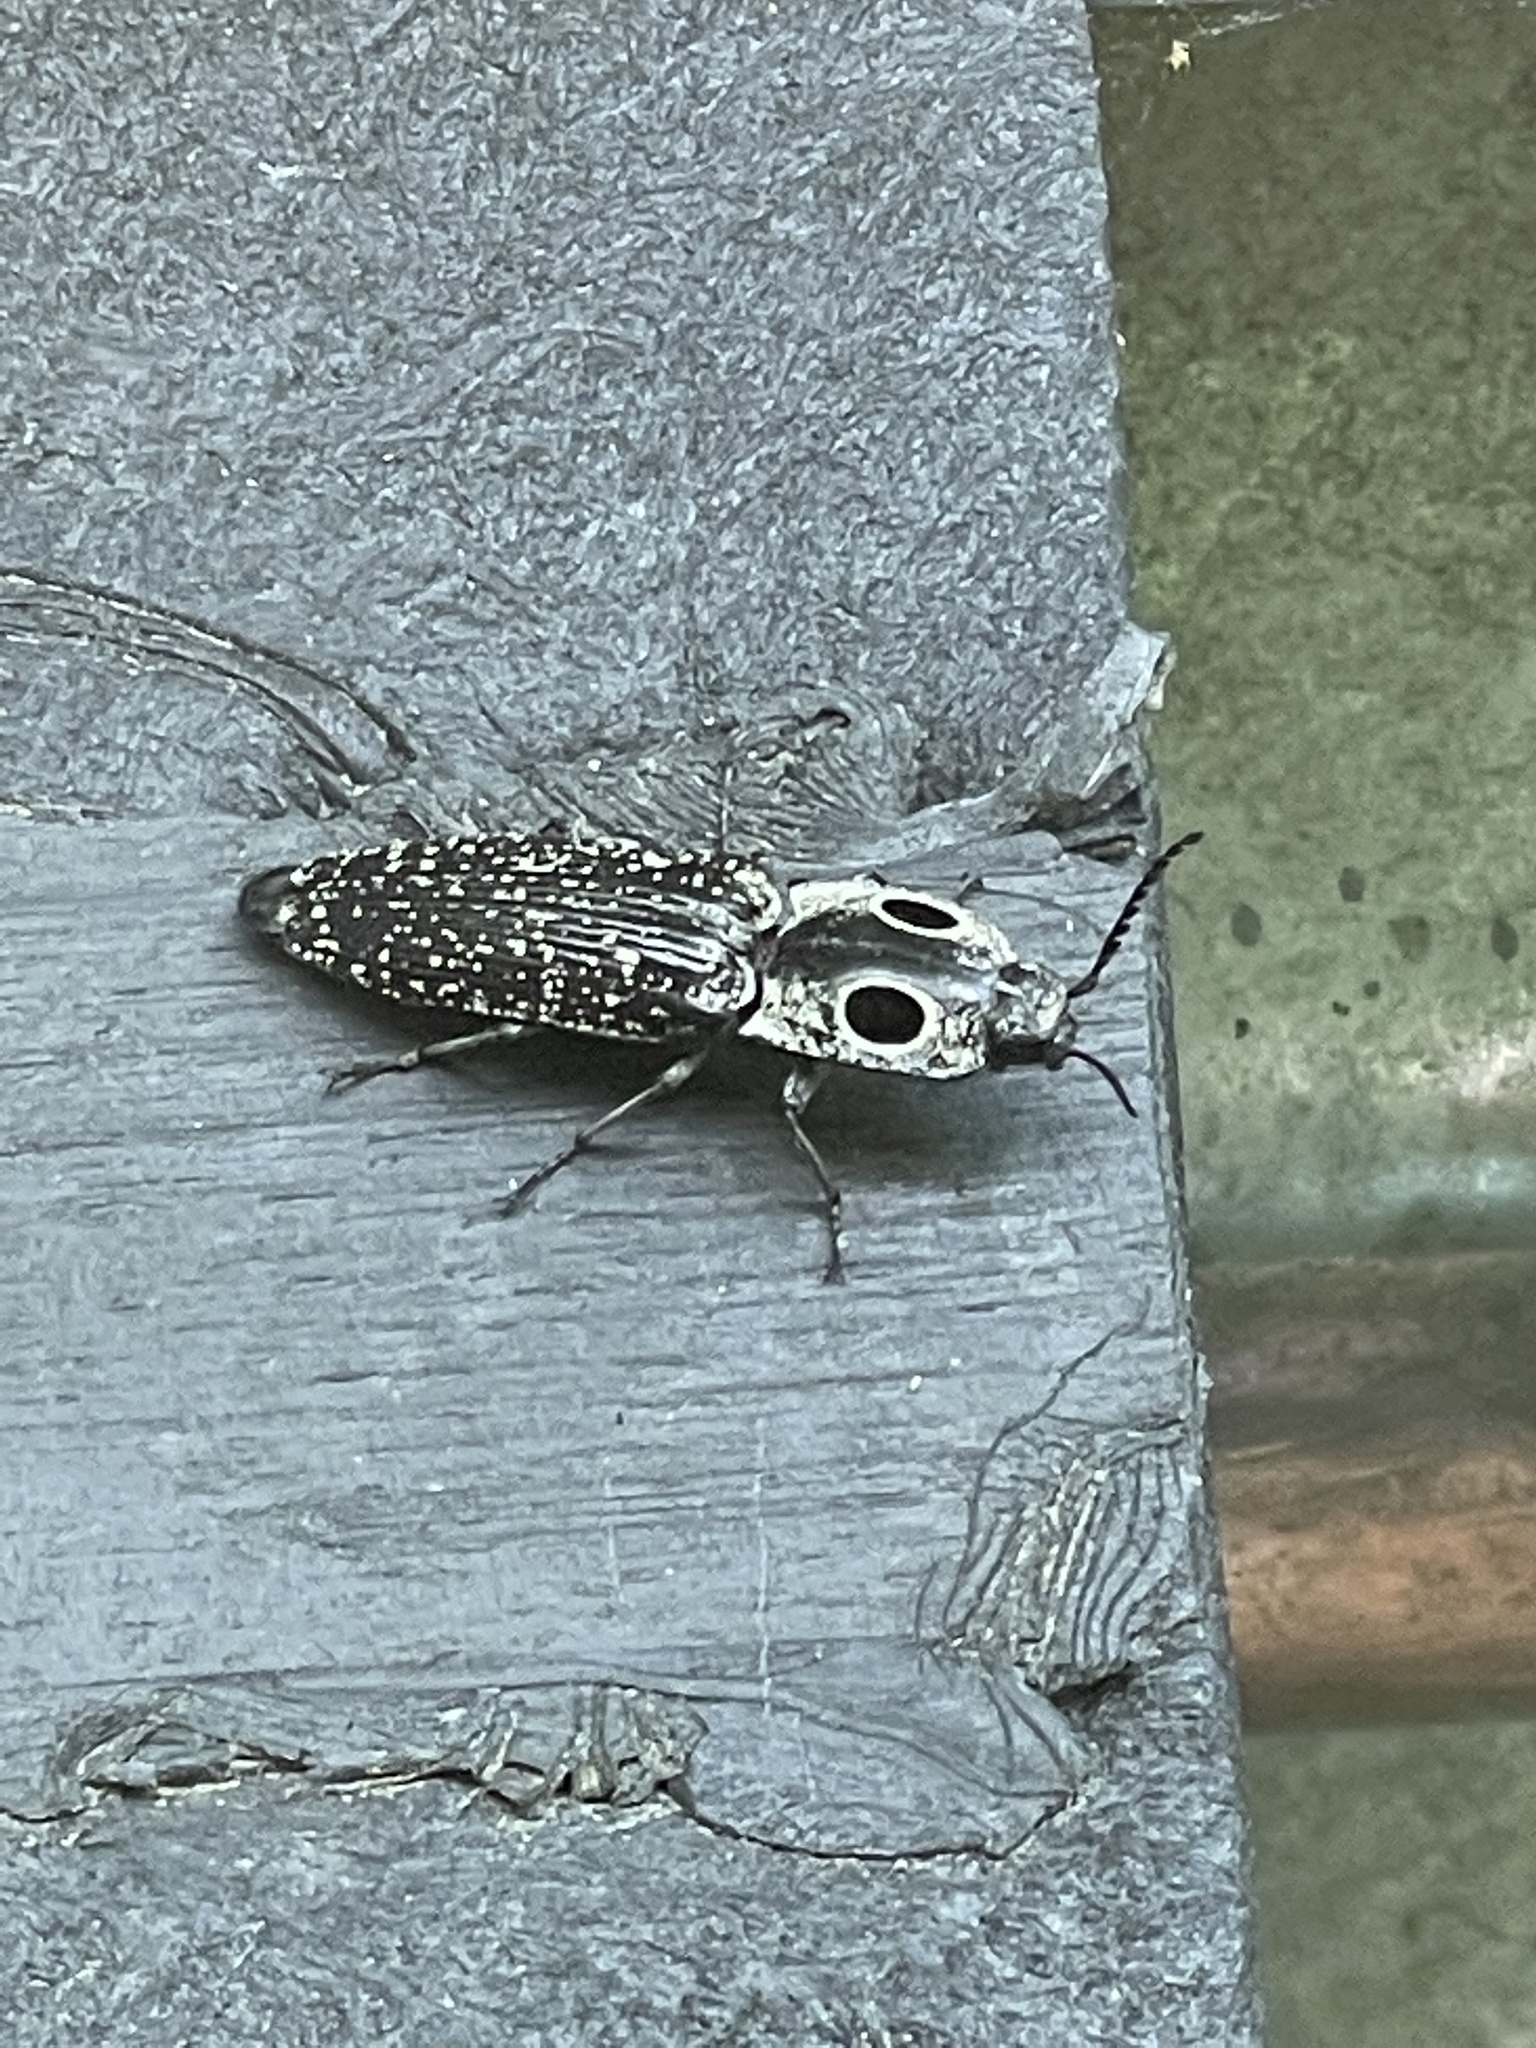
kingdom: Animalia
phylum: Arthropoda
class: Insecta
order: Coleoptera
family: Elateridae
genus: Alaus
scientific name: Alaus oculatus
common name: Eastern eyed click beetle
